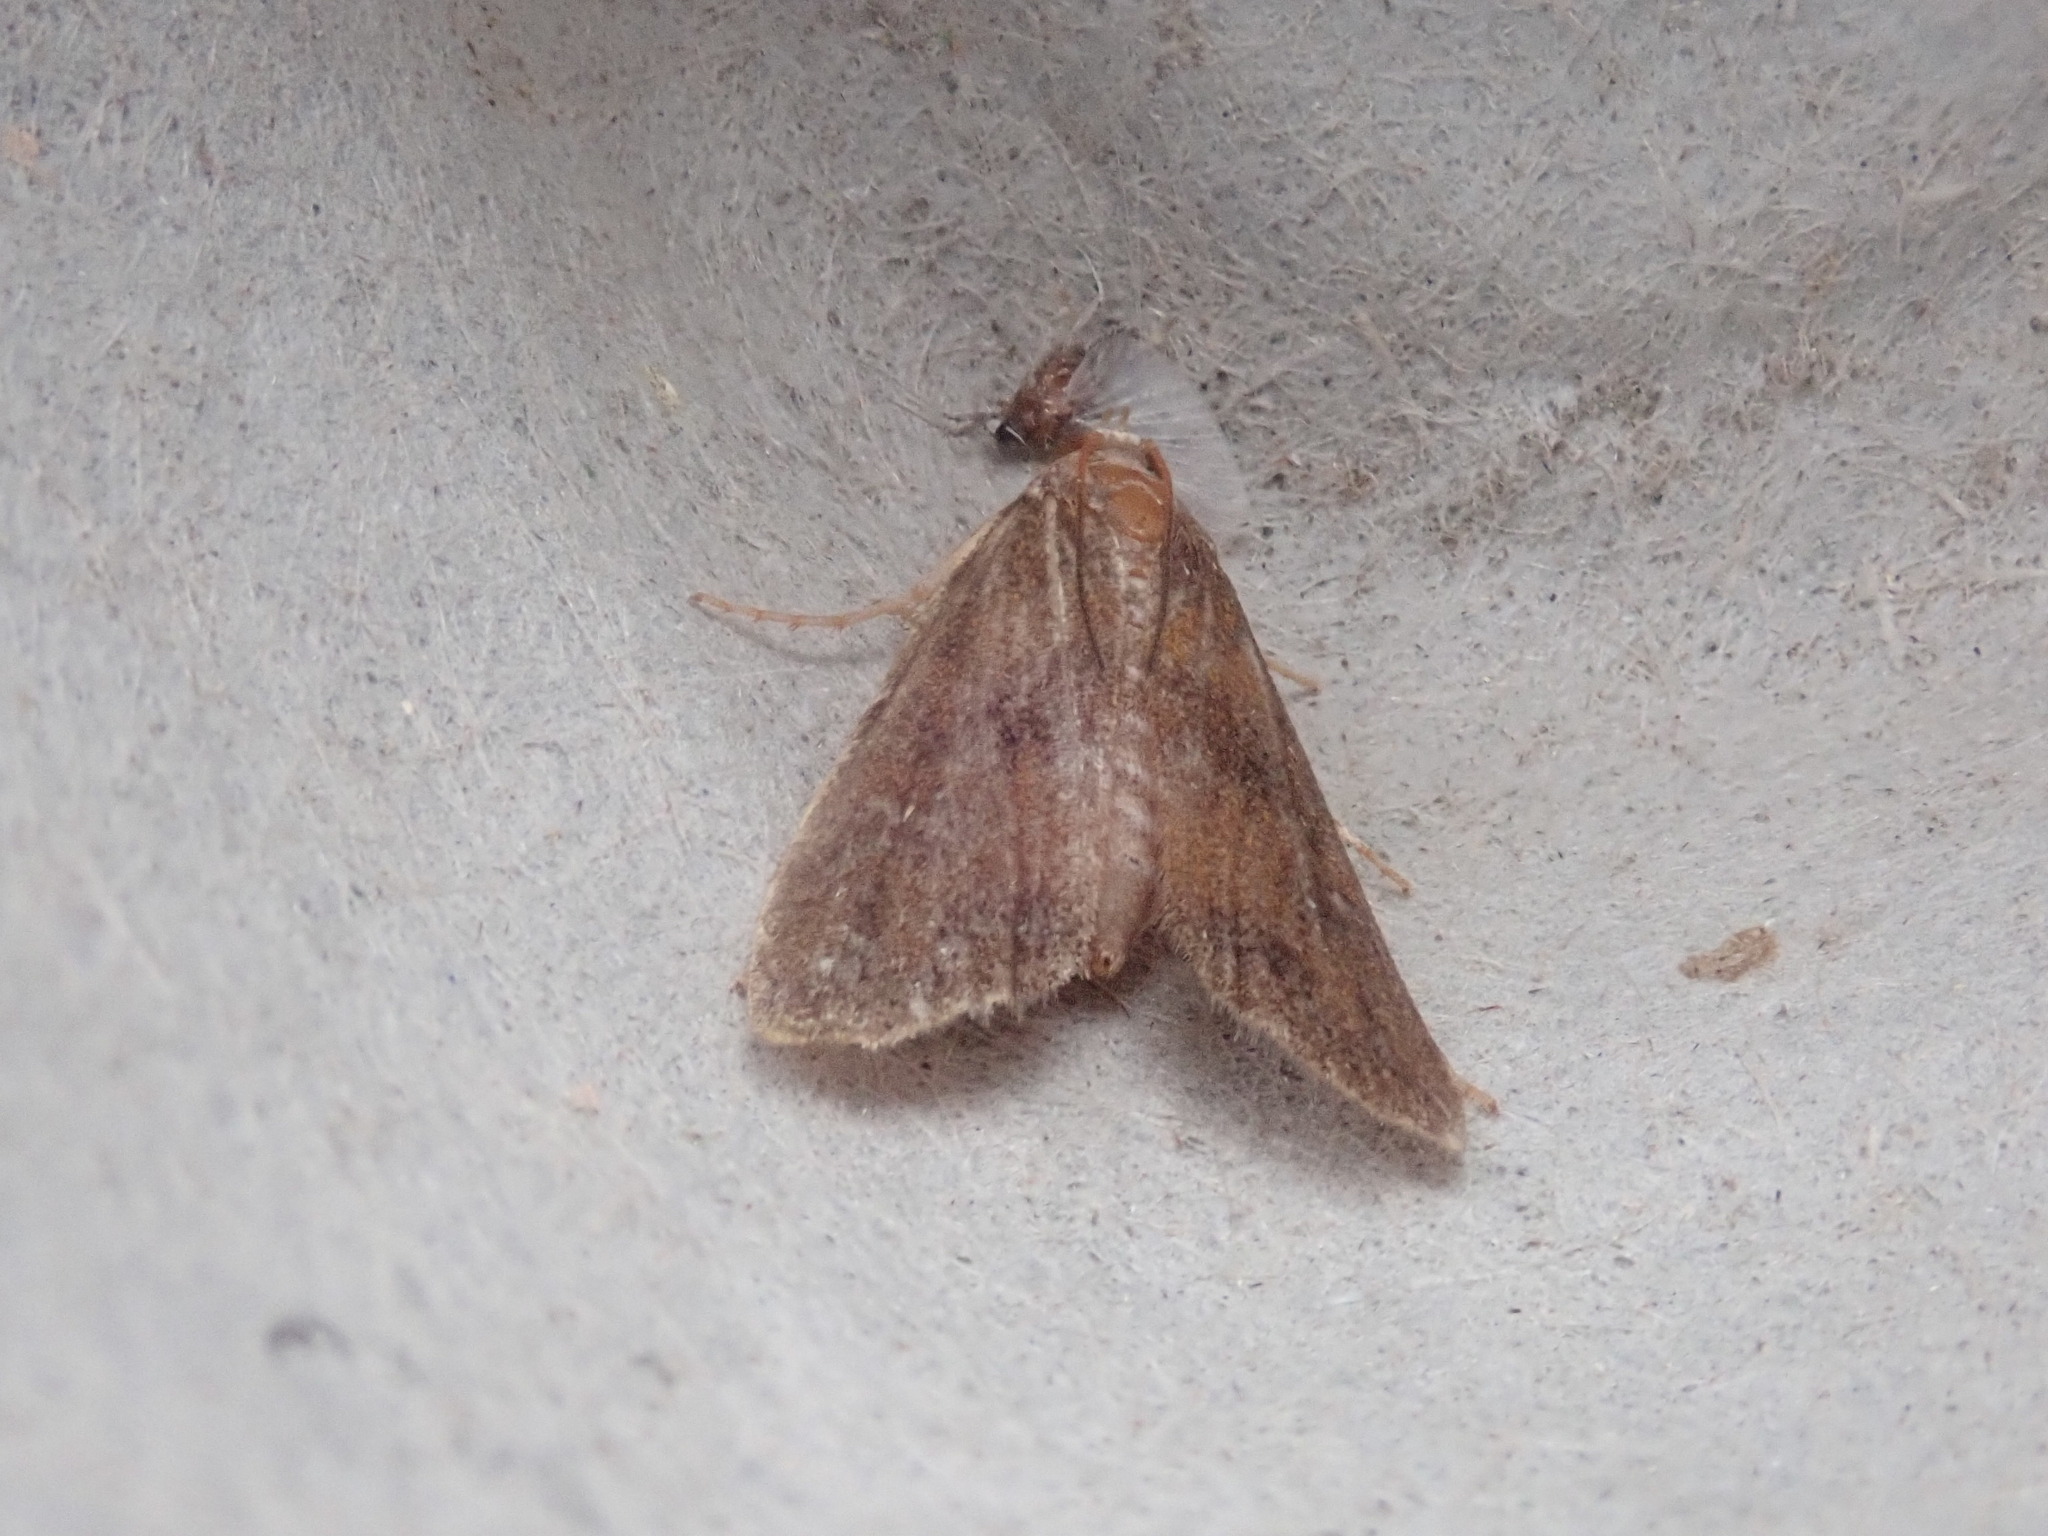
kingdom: Animalia
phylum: Arthropoda
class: Insecta
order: Lepidoptera
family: Crambidae
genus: Elophila
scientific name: Elophila gyralis
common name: Waterlily borer moth
